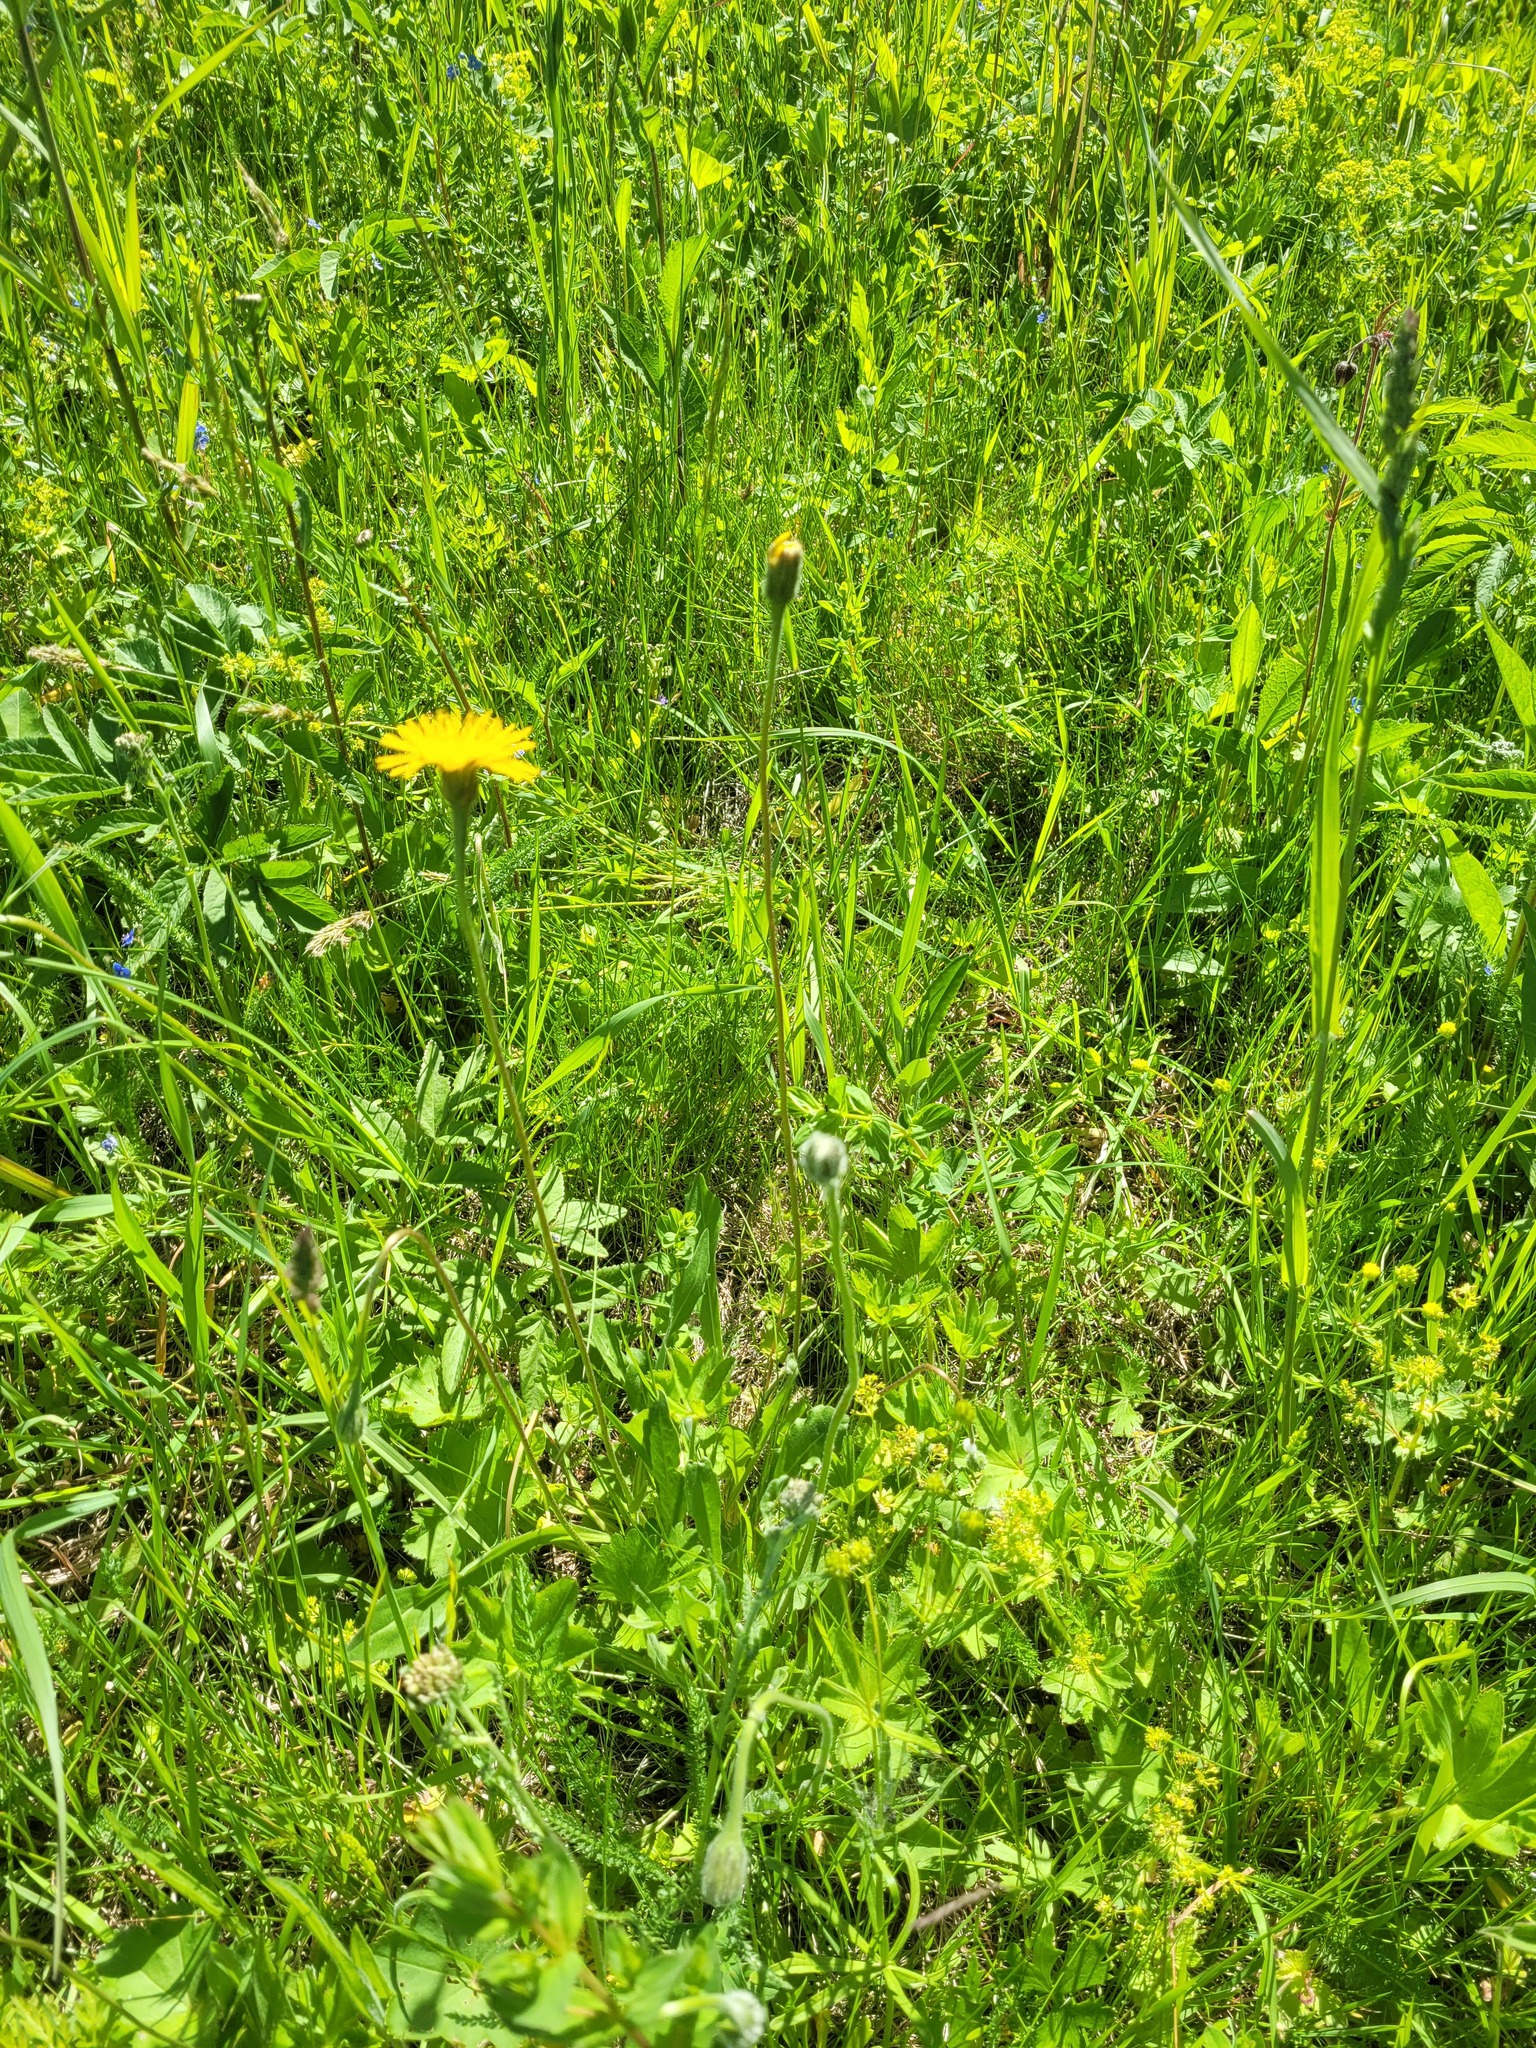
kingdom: Plantae
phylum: Tracheophyta
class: Magnoliopsida
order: Asterales
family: Asteraceae
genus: Leontodon
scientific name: Leontodon hispidus
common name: Rough hawkbit
